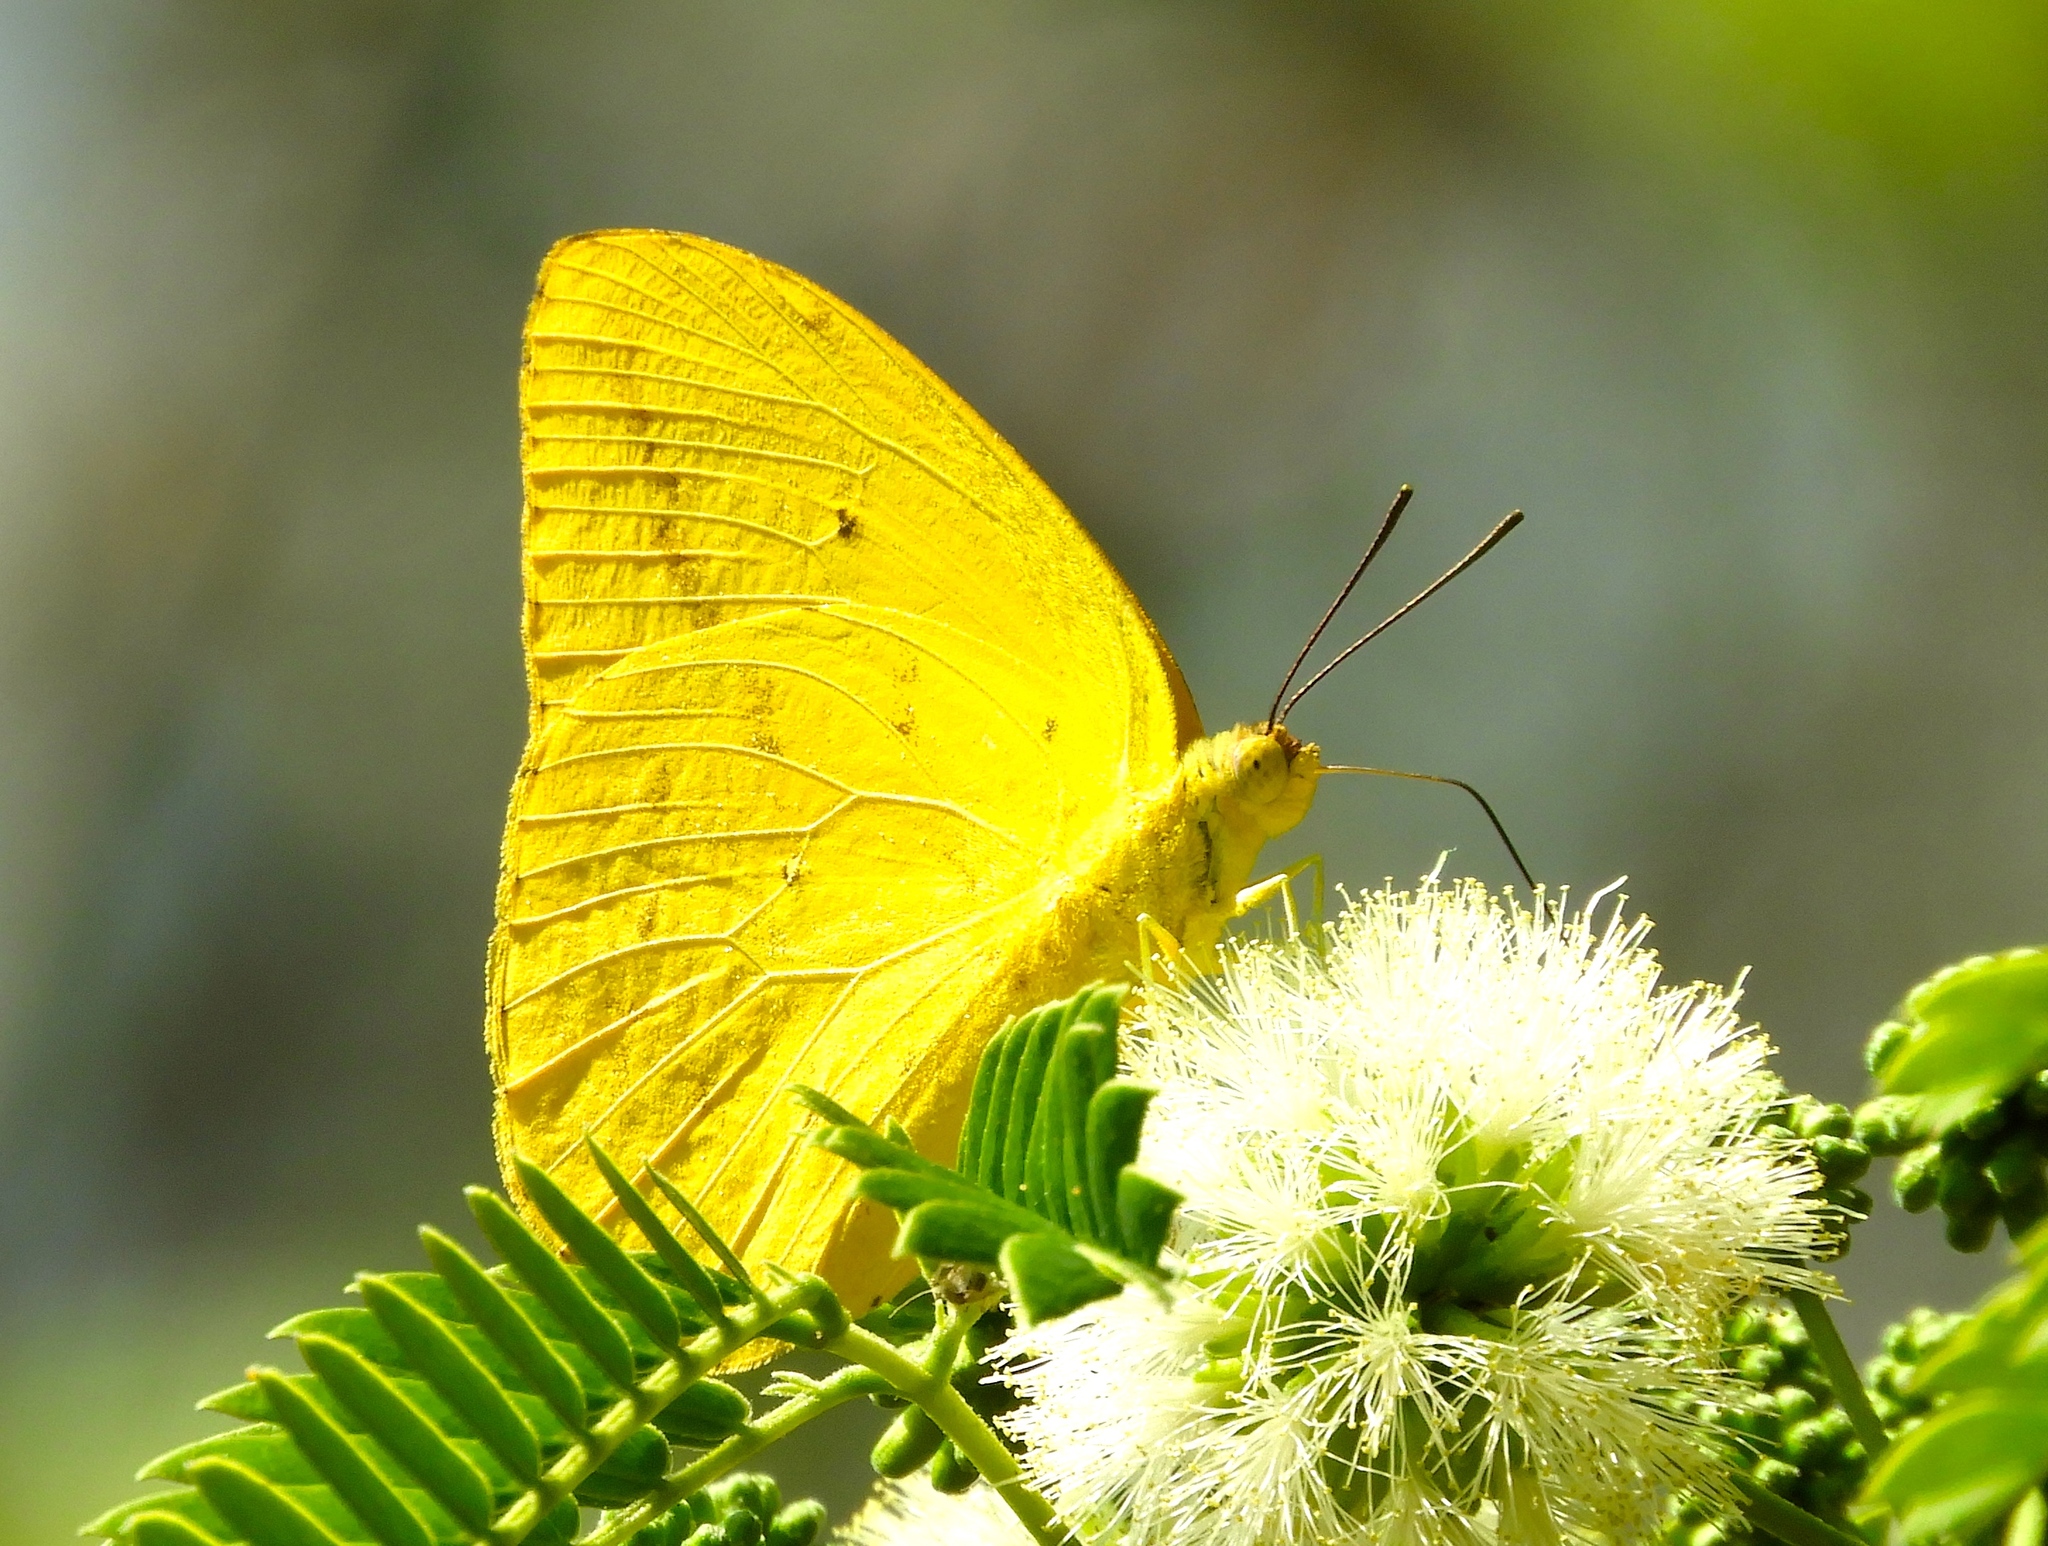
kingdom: Animalia
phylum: Arthropoda
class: Insecta
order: Lepidoptera
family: Pieridae
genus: Phoebis
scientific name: Phoebis agarithe
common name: Large orange sulphur
